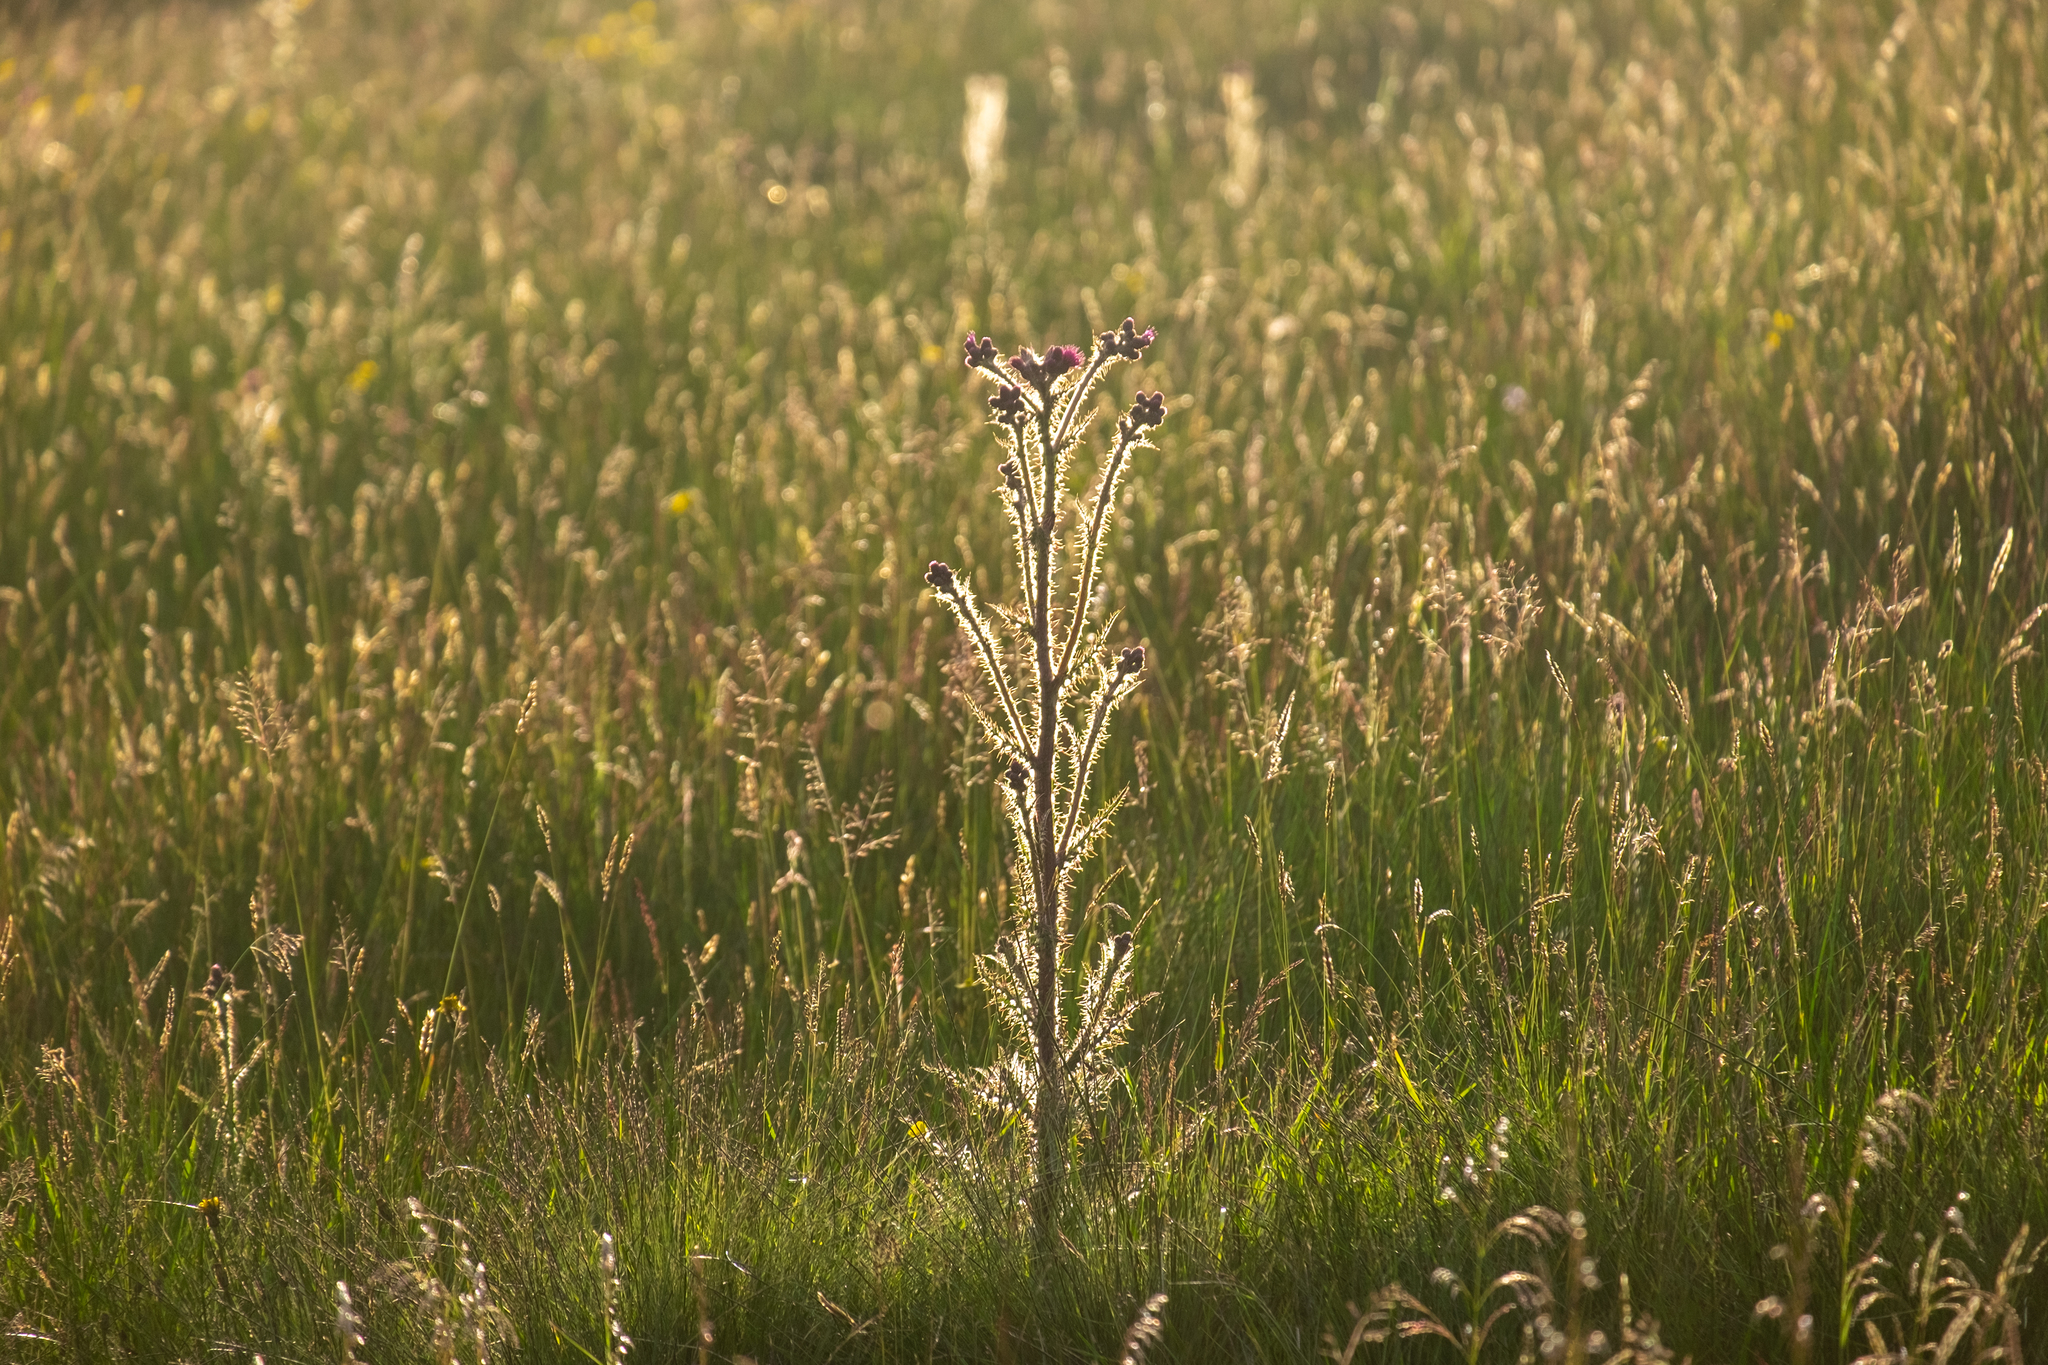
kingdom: Plantae
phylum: Tracheophyta
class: Magnoliopsida
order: Asterales
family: Asteraceae
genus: Cirsium
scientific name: Cirsium palustre
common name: Marsh thistle
